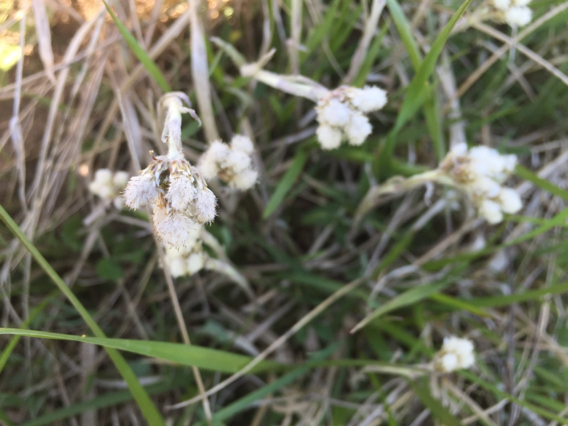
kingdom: Plantae
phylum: Tracheophyta
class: Magnoliopsida
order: Asterales
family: Asteraceae
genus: Antennaria
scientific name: Antennaria neglecta
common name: Field pussytoes
